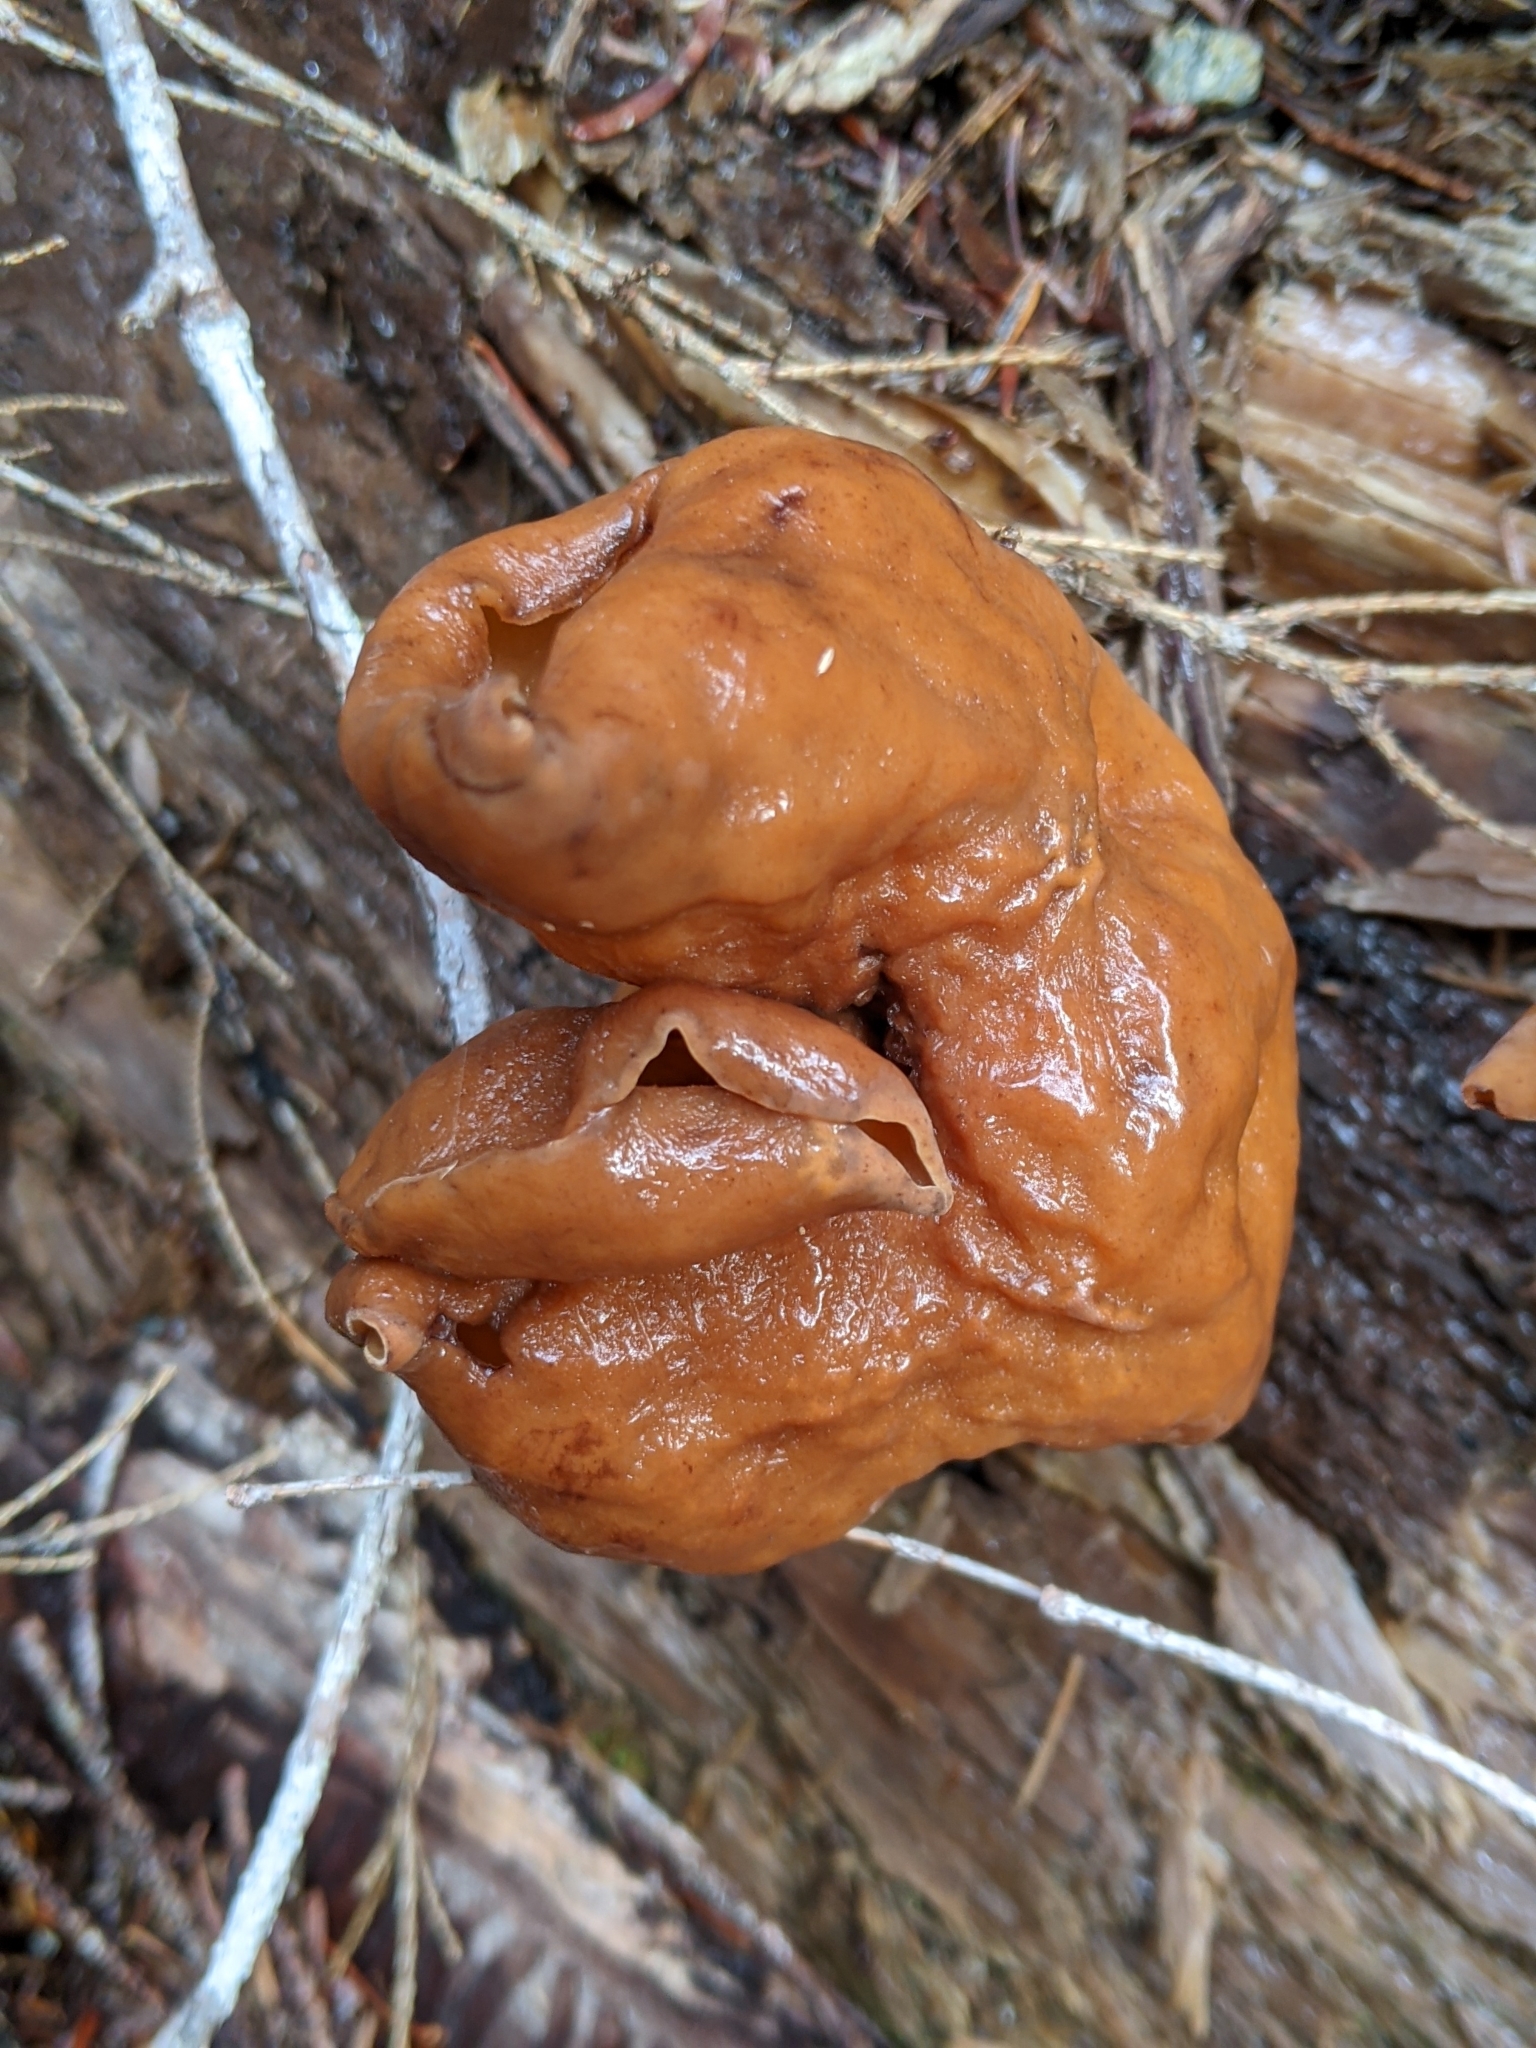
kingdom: Fungi
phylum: Ascomycota
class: Pezizomycetes
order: Pezizales
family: Discinaceae
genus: Gyromitra
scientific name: Gyromitra infula
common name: Pouched false morel
